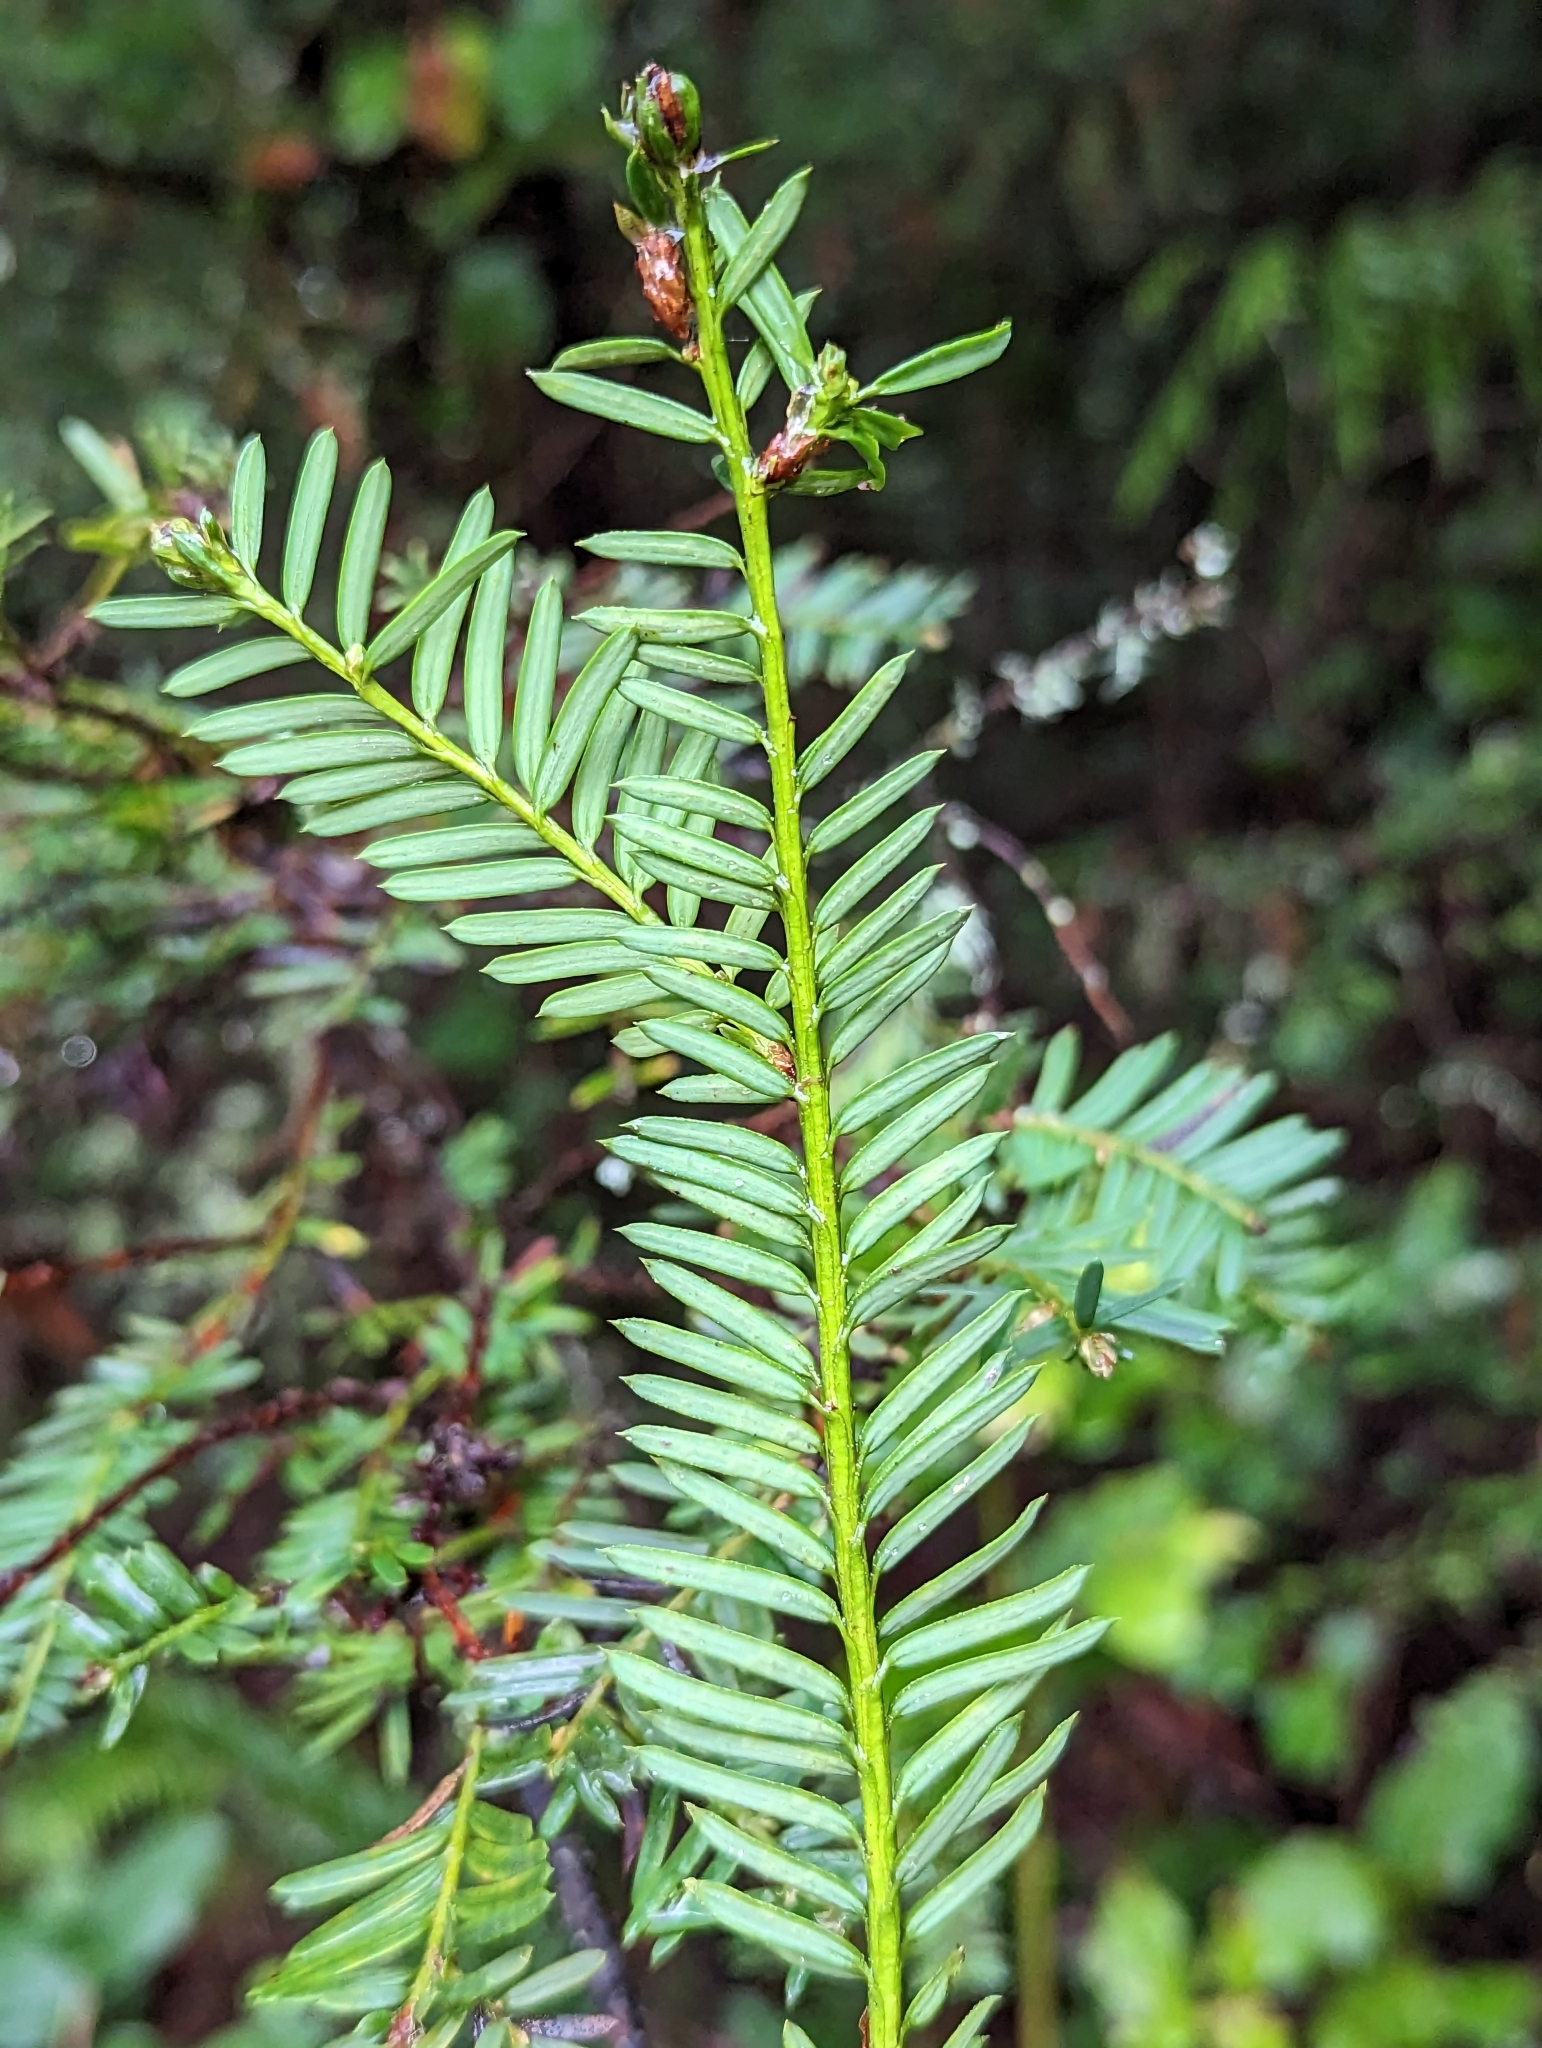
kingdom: Plantae
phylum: Tracheophyta
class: Pinopsida
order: Pinales
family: Taxaceae
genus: Taxus
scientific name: Taxus brevifolia
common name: Pacific yew
